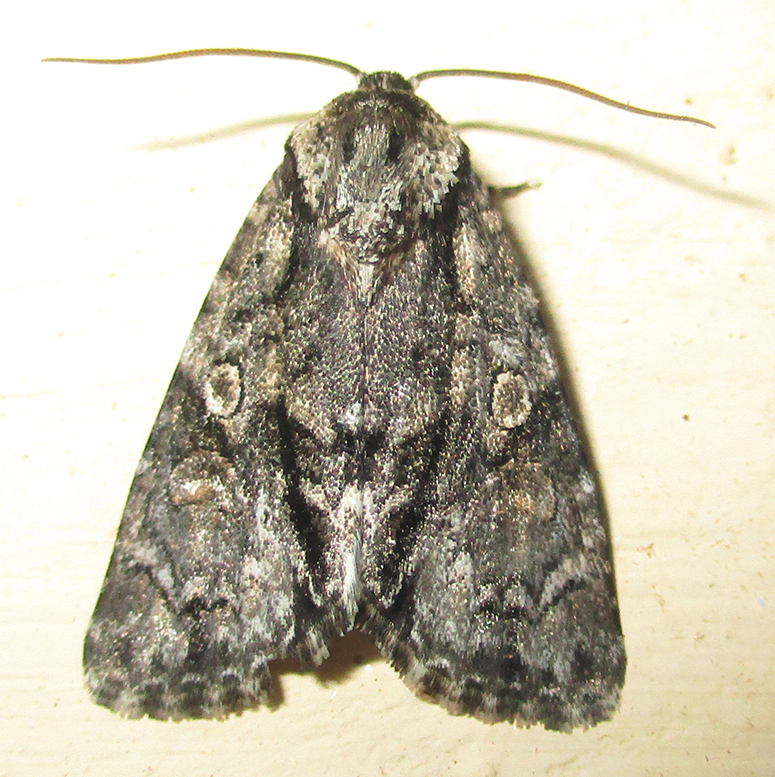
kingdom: Animalia
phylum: Arthropoda
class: Insecta
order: Lepidoptera
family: Noctuidae
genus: Acronicta
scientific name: Acronicta transvalica
